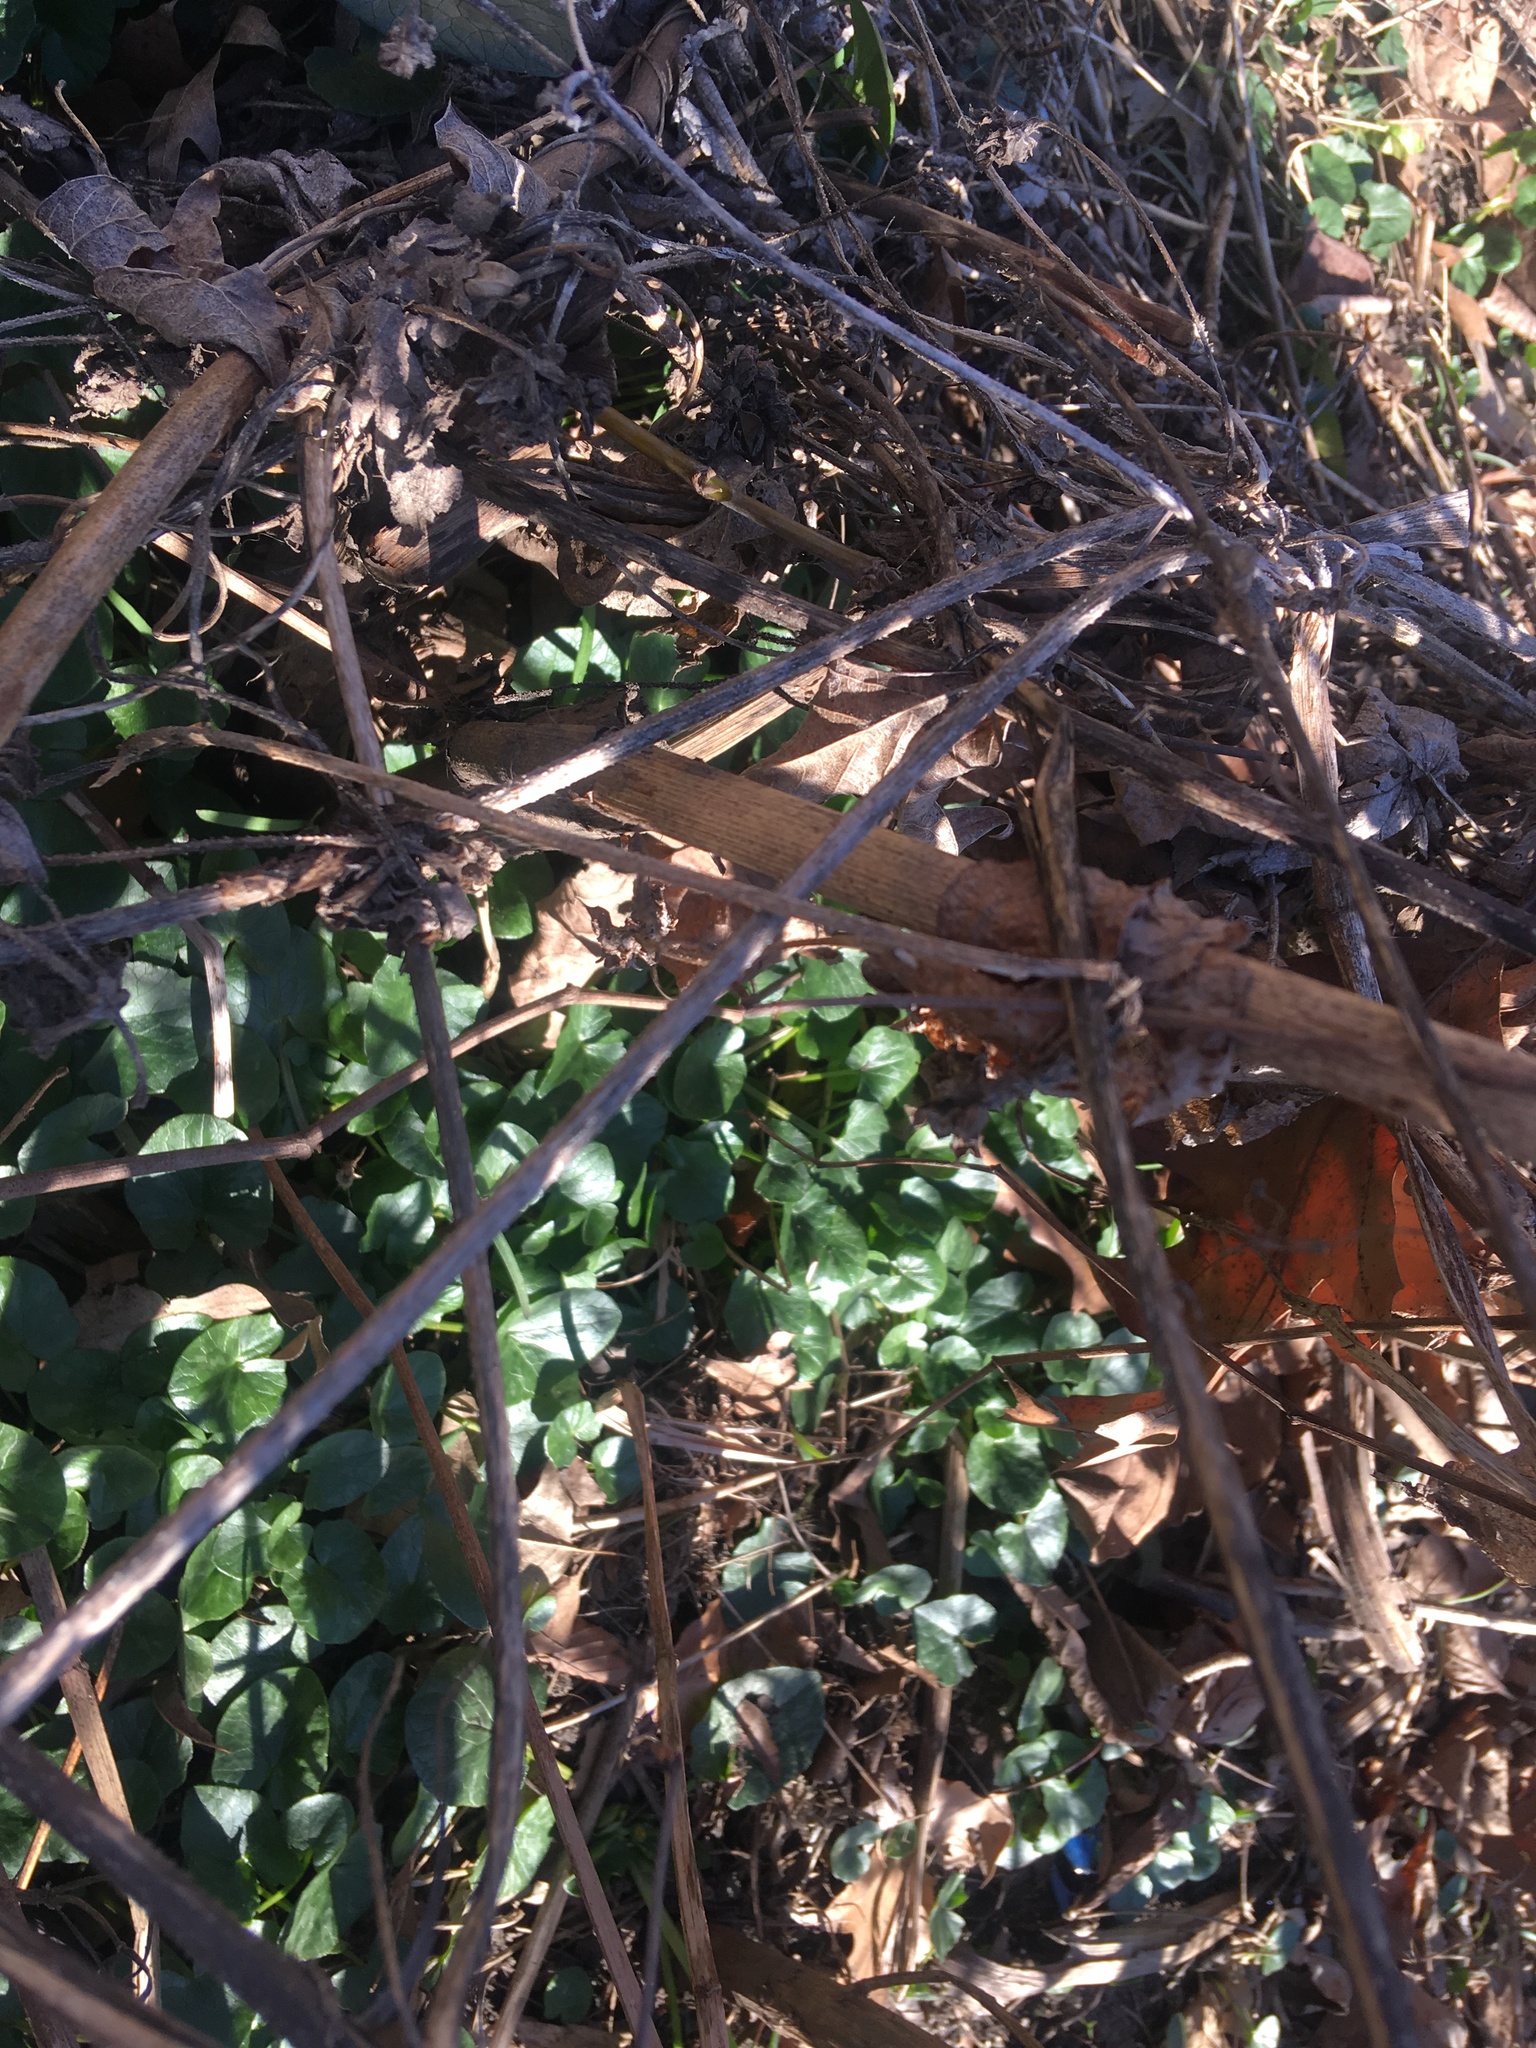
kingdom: Plantae
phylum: Tracheophyta
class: Magnoliopsida
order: Ranunculales
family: Ranunculaceae
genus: Ficaria
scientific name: Ficaria verna
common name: Lesser celandine
